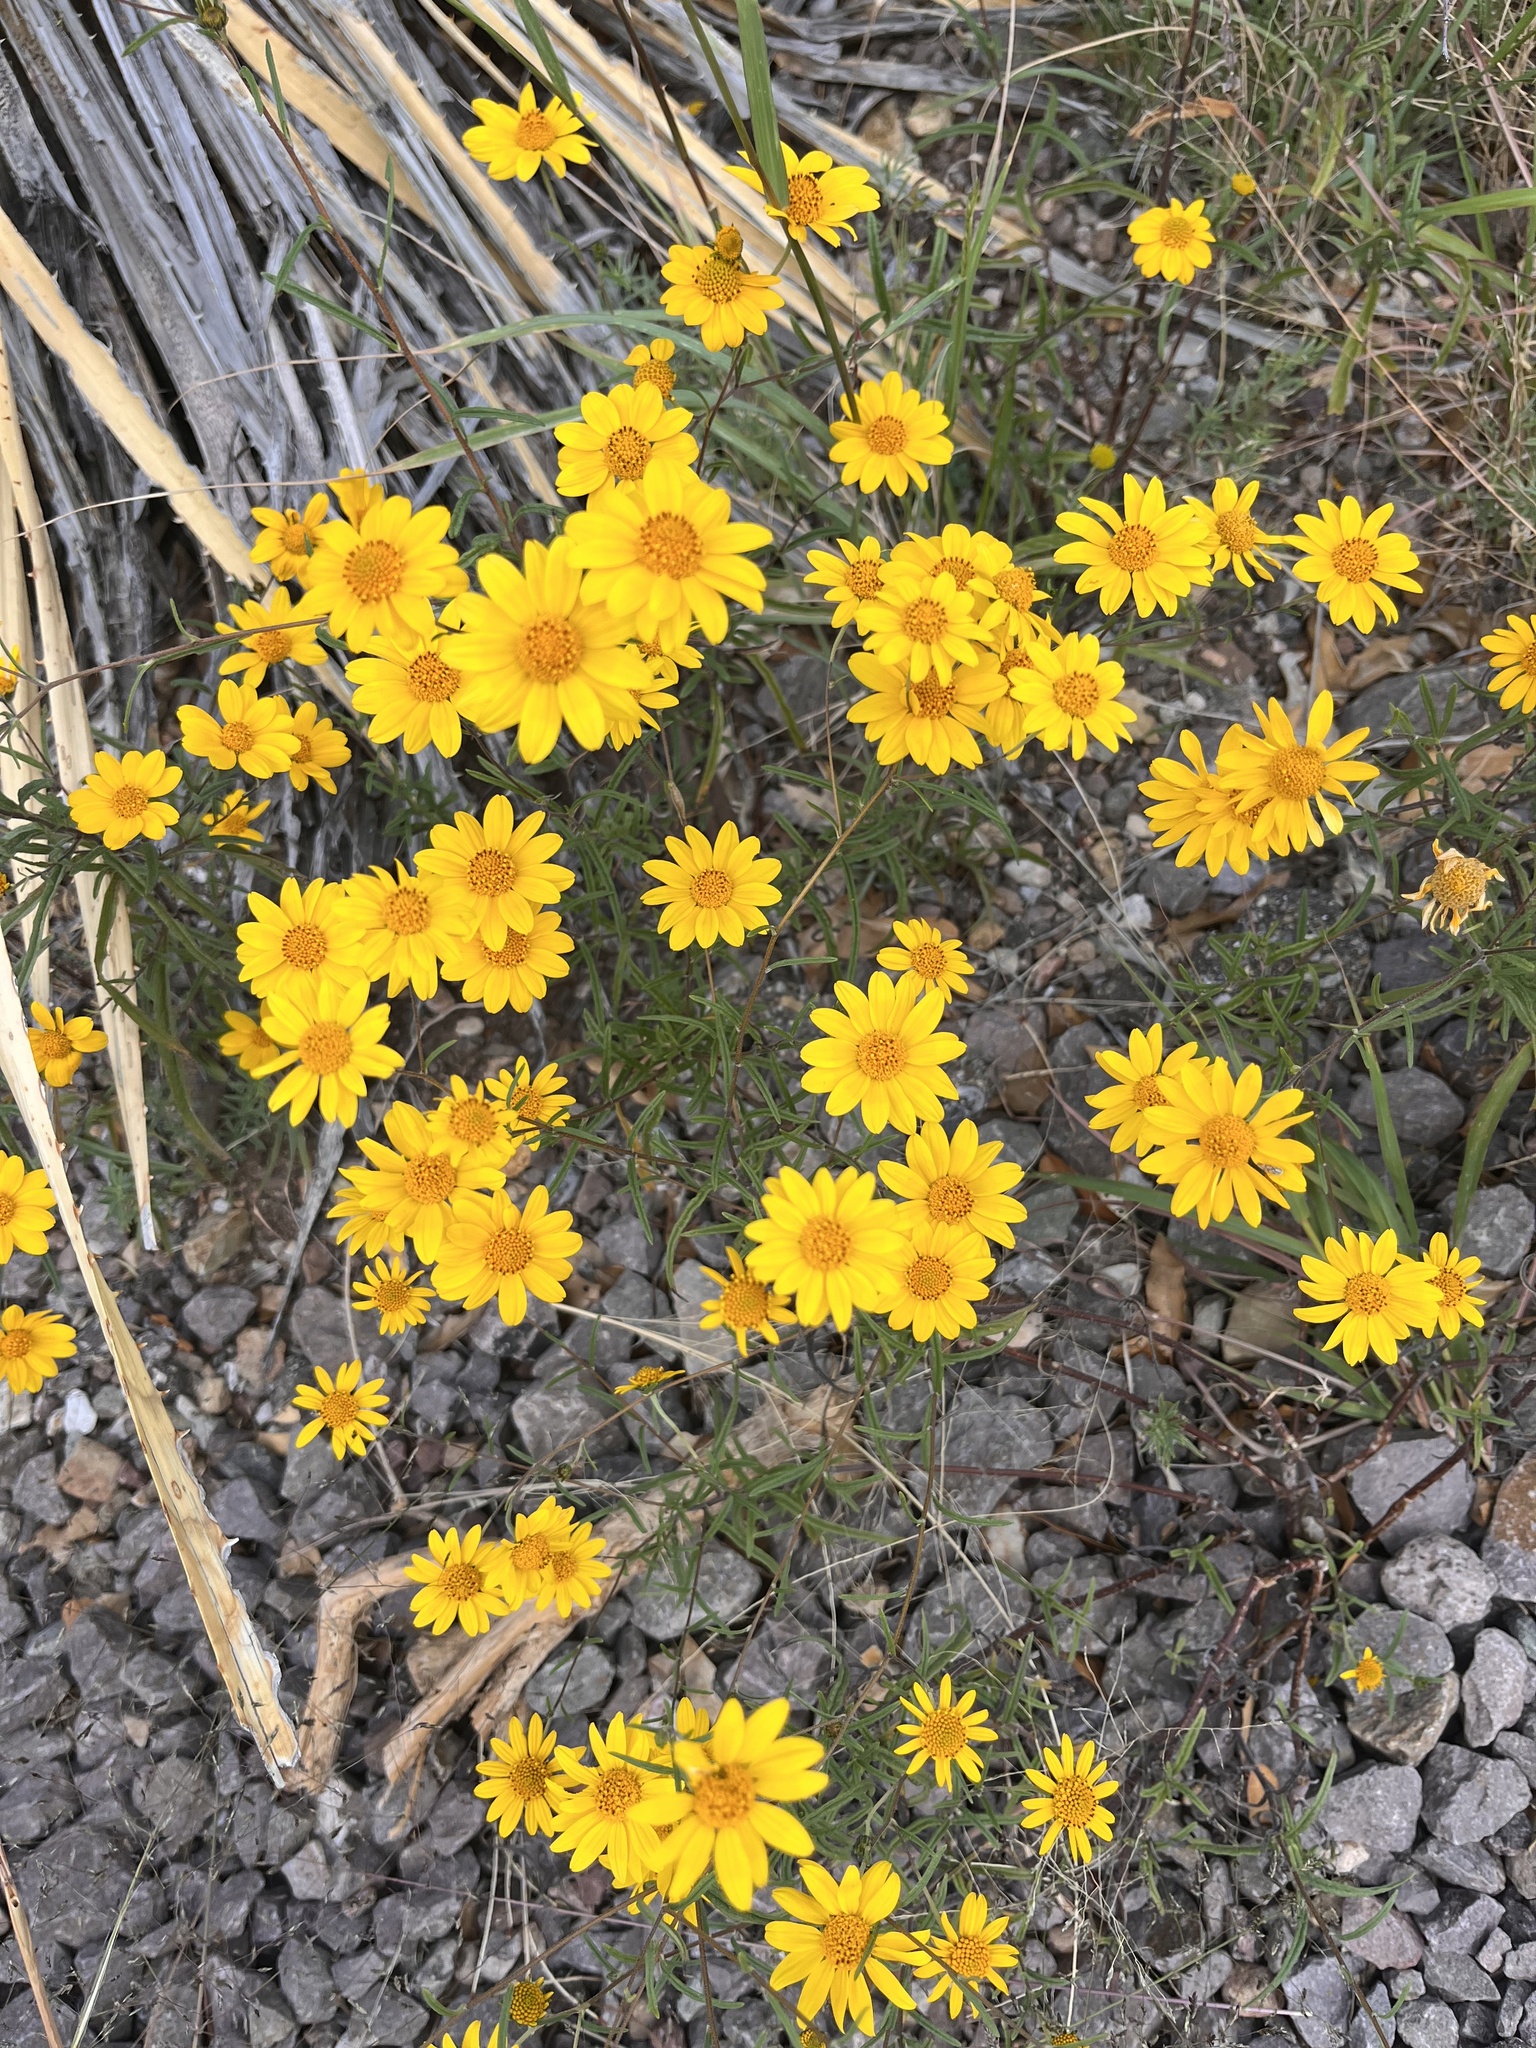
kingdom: Plantae
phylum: Tracheophyta
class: Magnoliopsida
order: Asterales
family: Asteraceae
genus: Thymophylla
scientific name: Thymophylla pentachaeta
